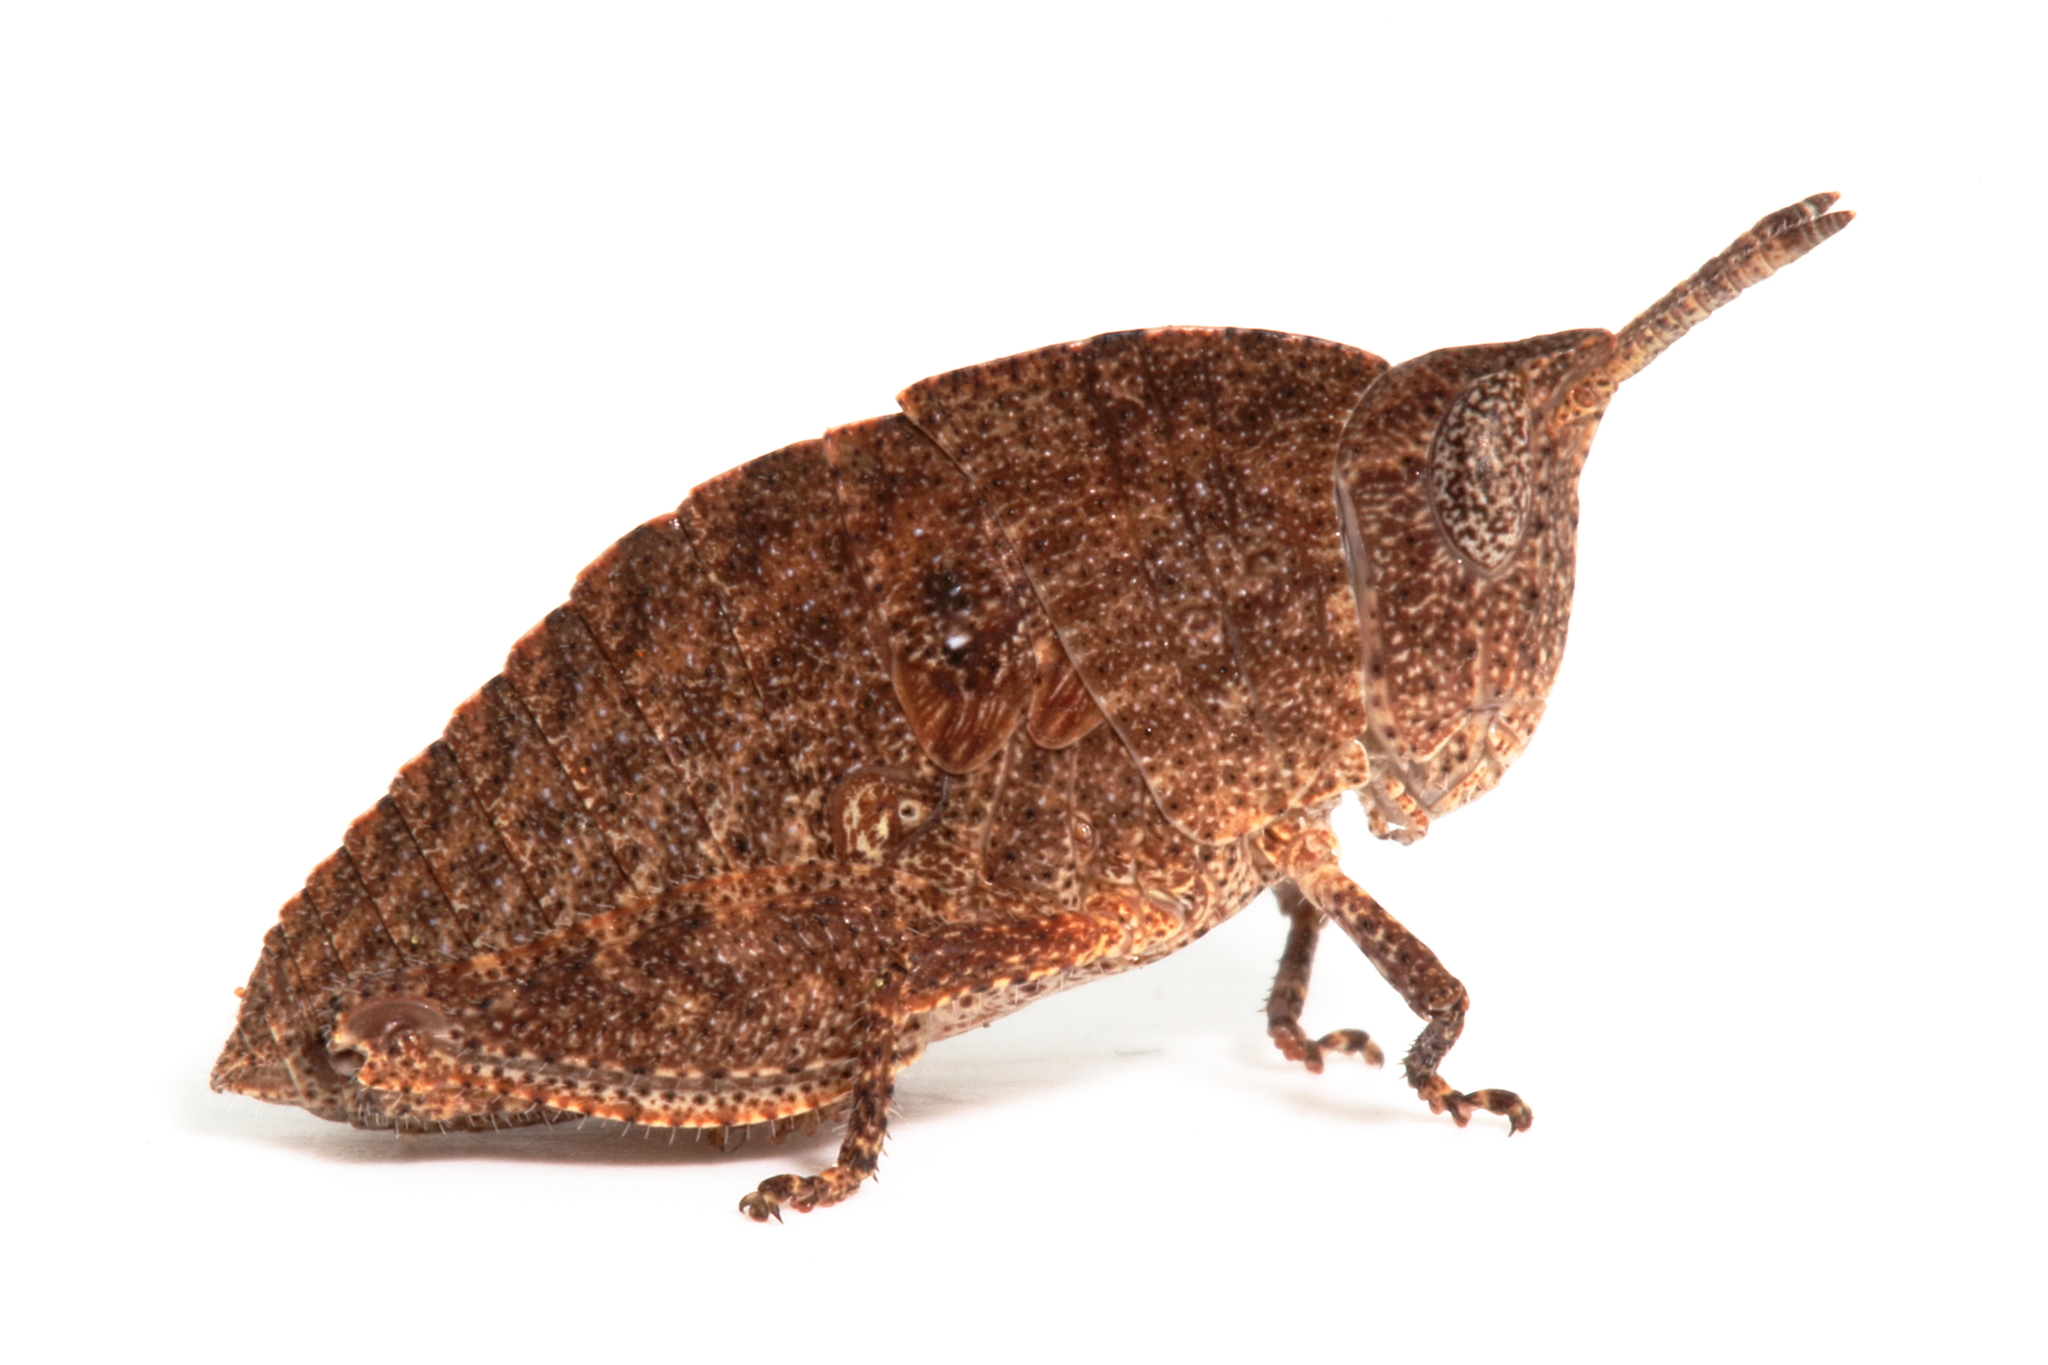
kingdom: Animalia
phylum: Arthropoda
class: Insecta
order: Orthoptera
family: Acrididae
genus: Goniaea
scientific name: Goniaea vocans
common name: Slender gumleaf grasshopper
